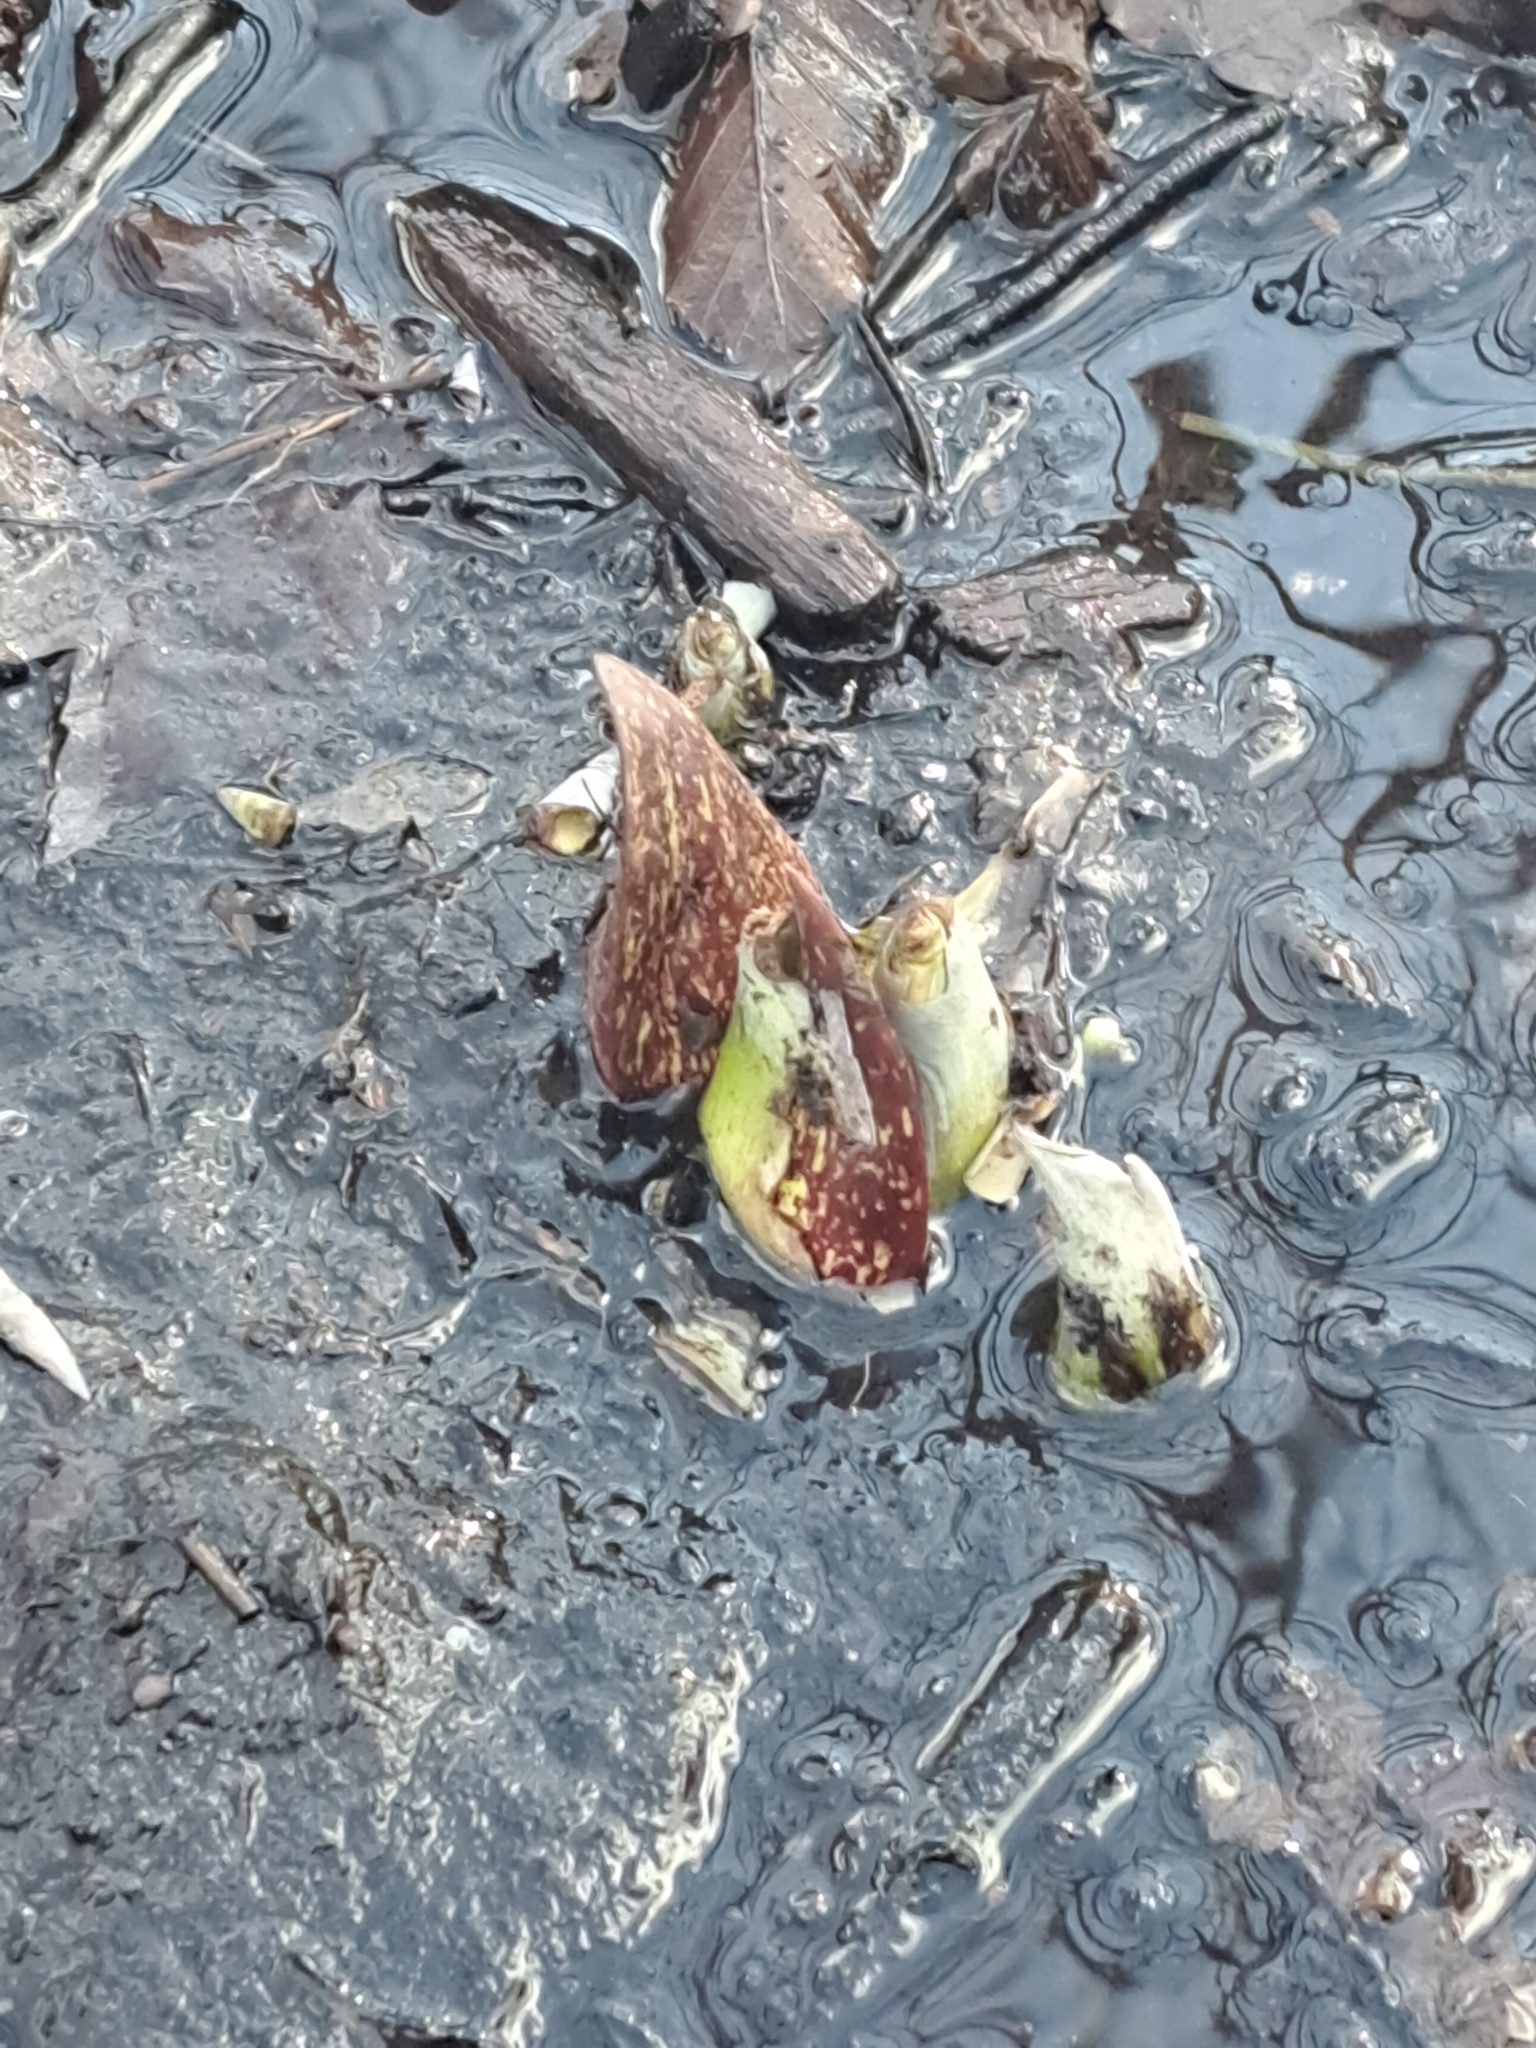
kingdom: Plantae
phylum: Tracheophyta
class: Liliopsida
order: Alismatales
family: Araceae
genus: Symplocarpus
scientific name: Symplocarpus foetidus
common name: Eastern skunk cabbage
